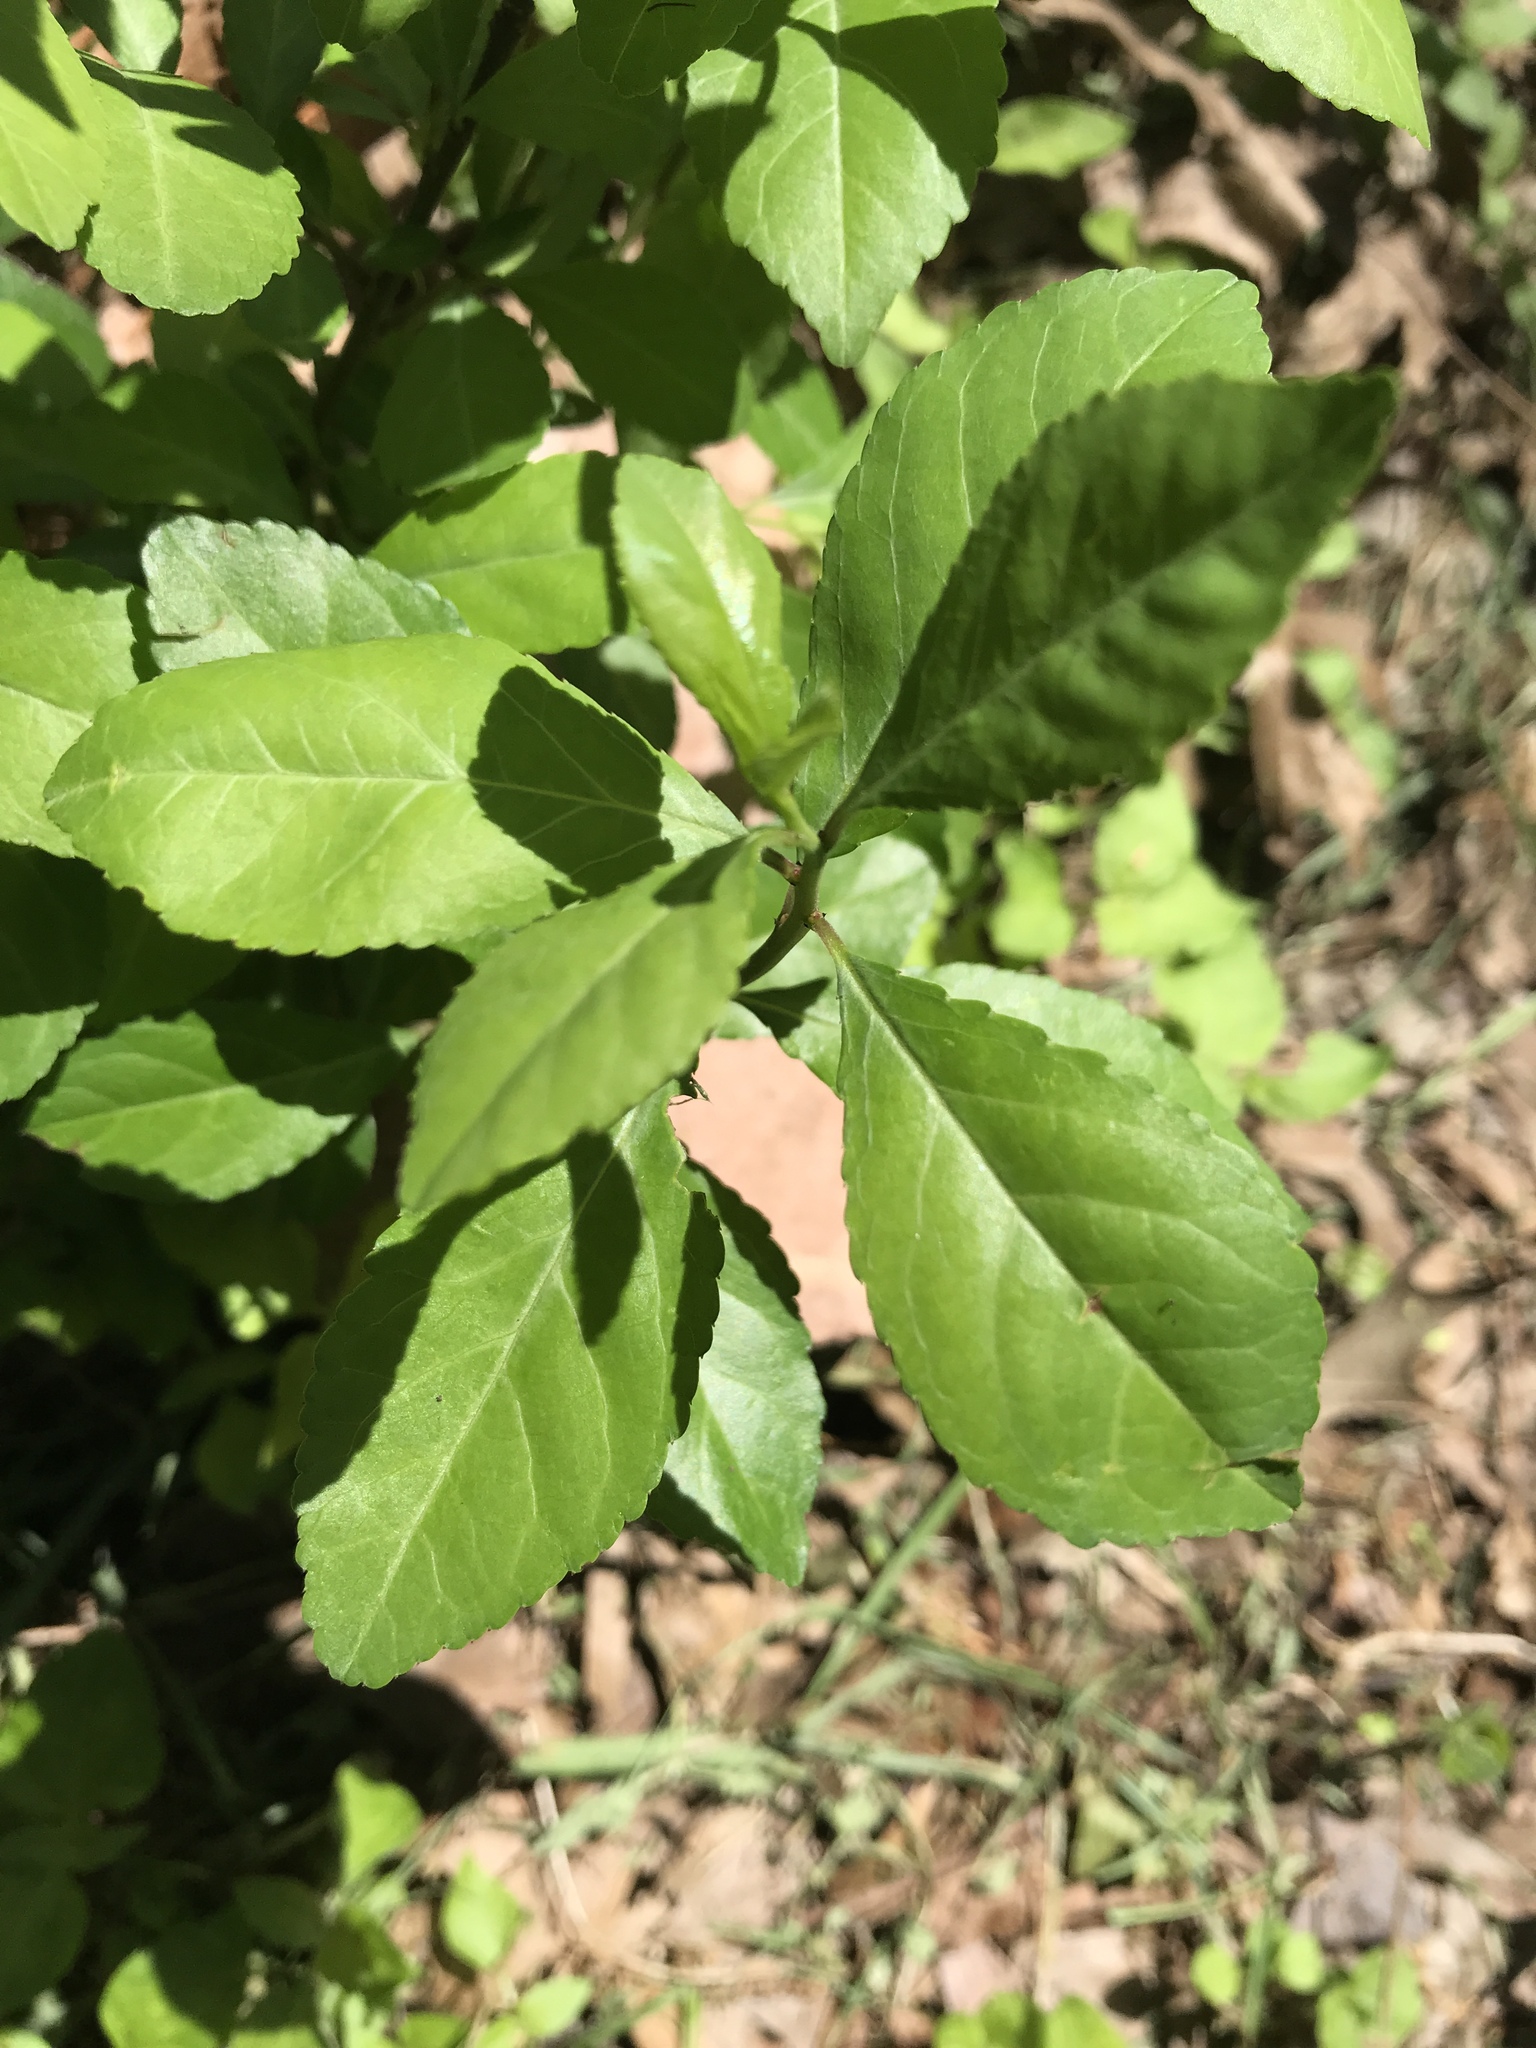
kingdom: Plantae
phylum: Tracheophyta
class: Magnoliopsida
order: Aquifoliales
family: Aquifoliaceae
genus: Ilex
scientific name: Ilex decidua
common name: Possum-haw
